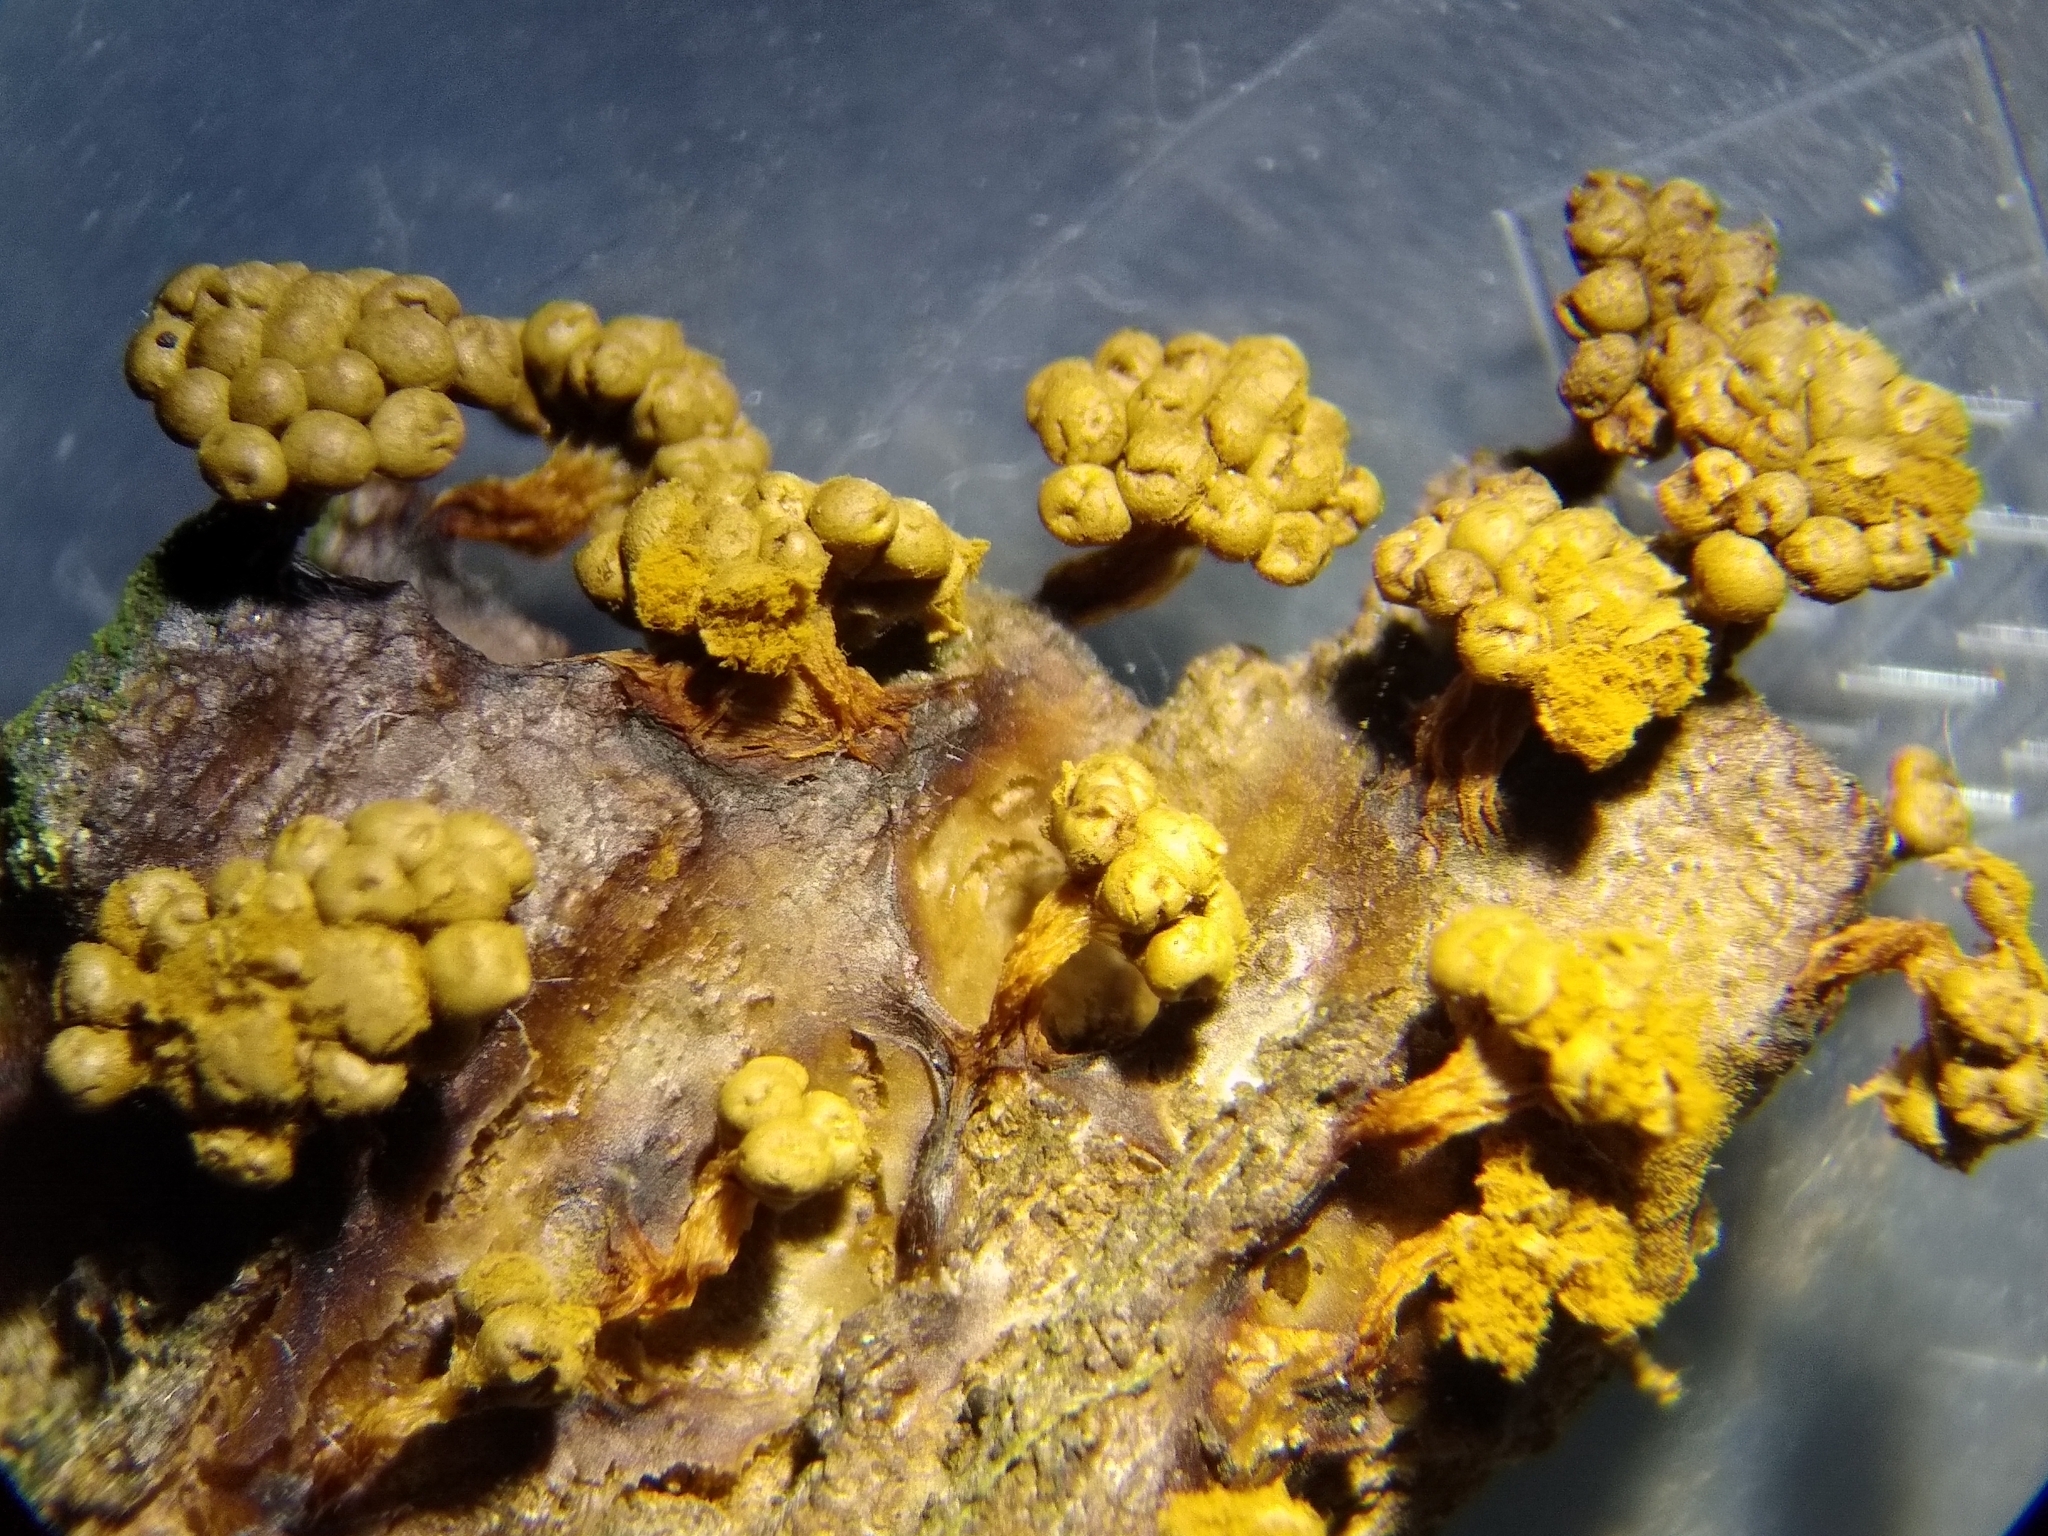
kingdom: Protozoa
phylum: Mycetozoa
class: Myxomycetes
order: Trichiales
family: Trichiaceae
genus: Oligonema
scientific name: Oligonema verrucosum
